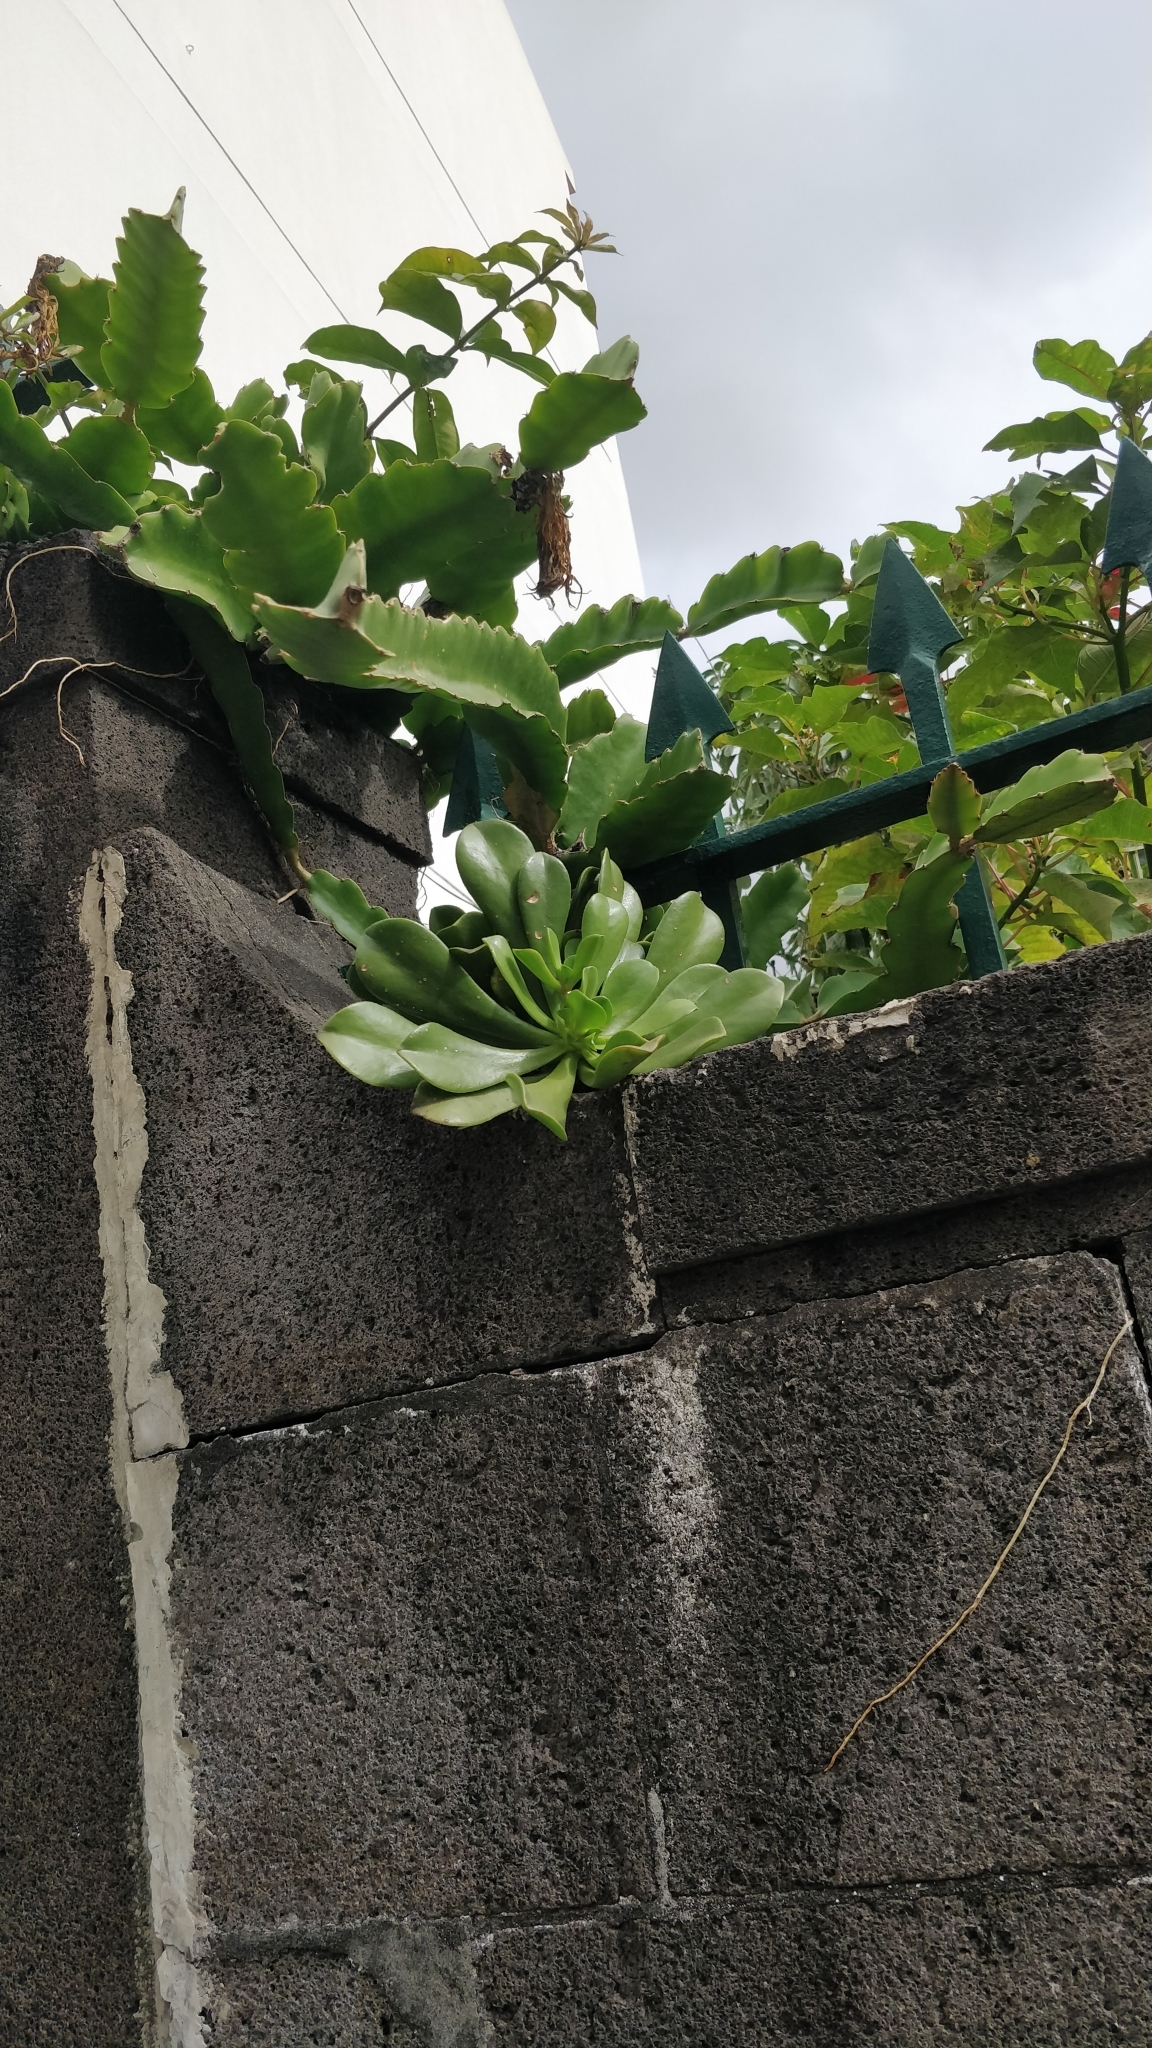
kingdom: Plantae
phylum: Tracheophyta
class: Magnoliopsida
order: Saxifragales
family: Crassulaceae
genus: Aeonium
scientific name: Aeonium glutinosum
